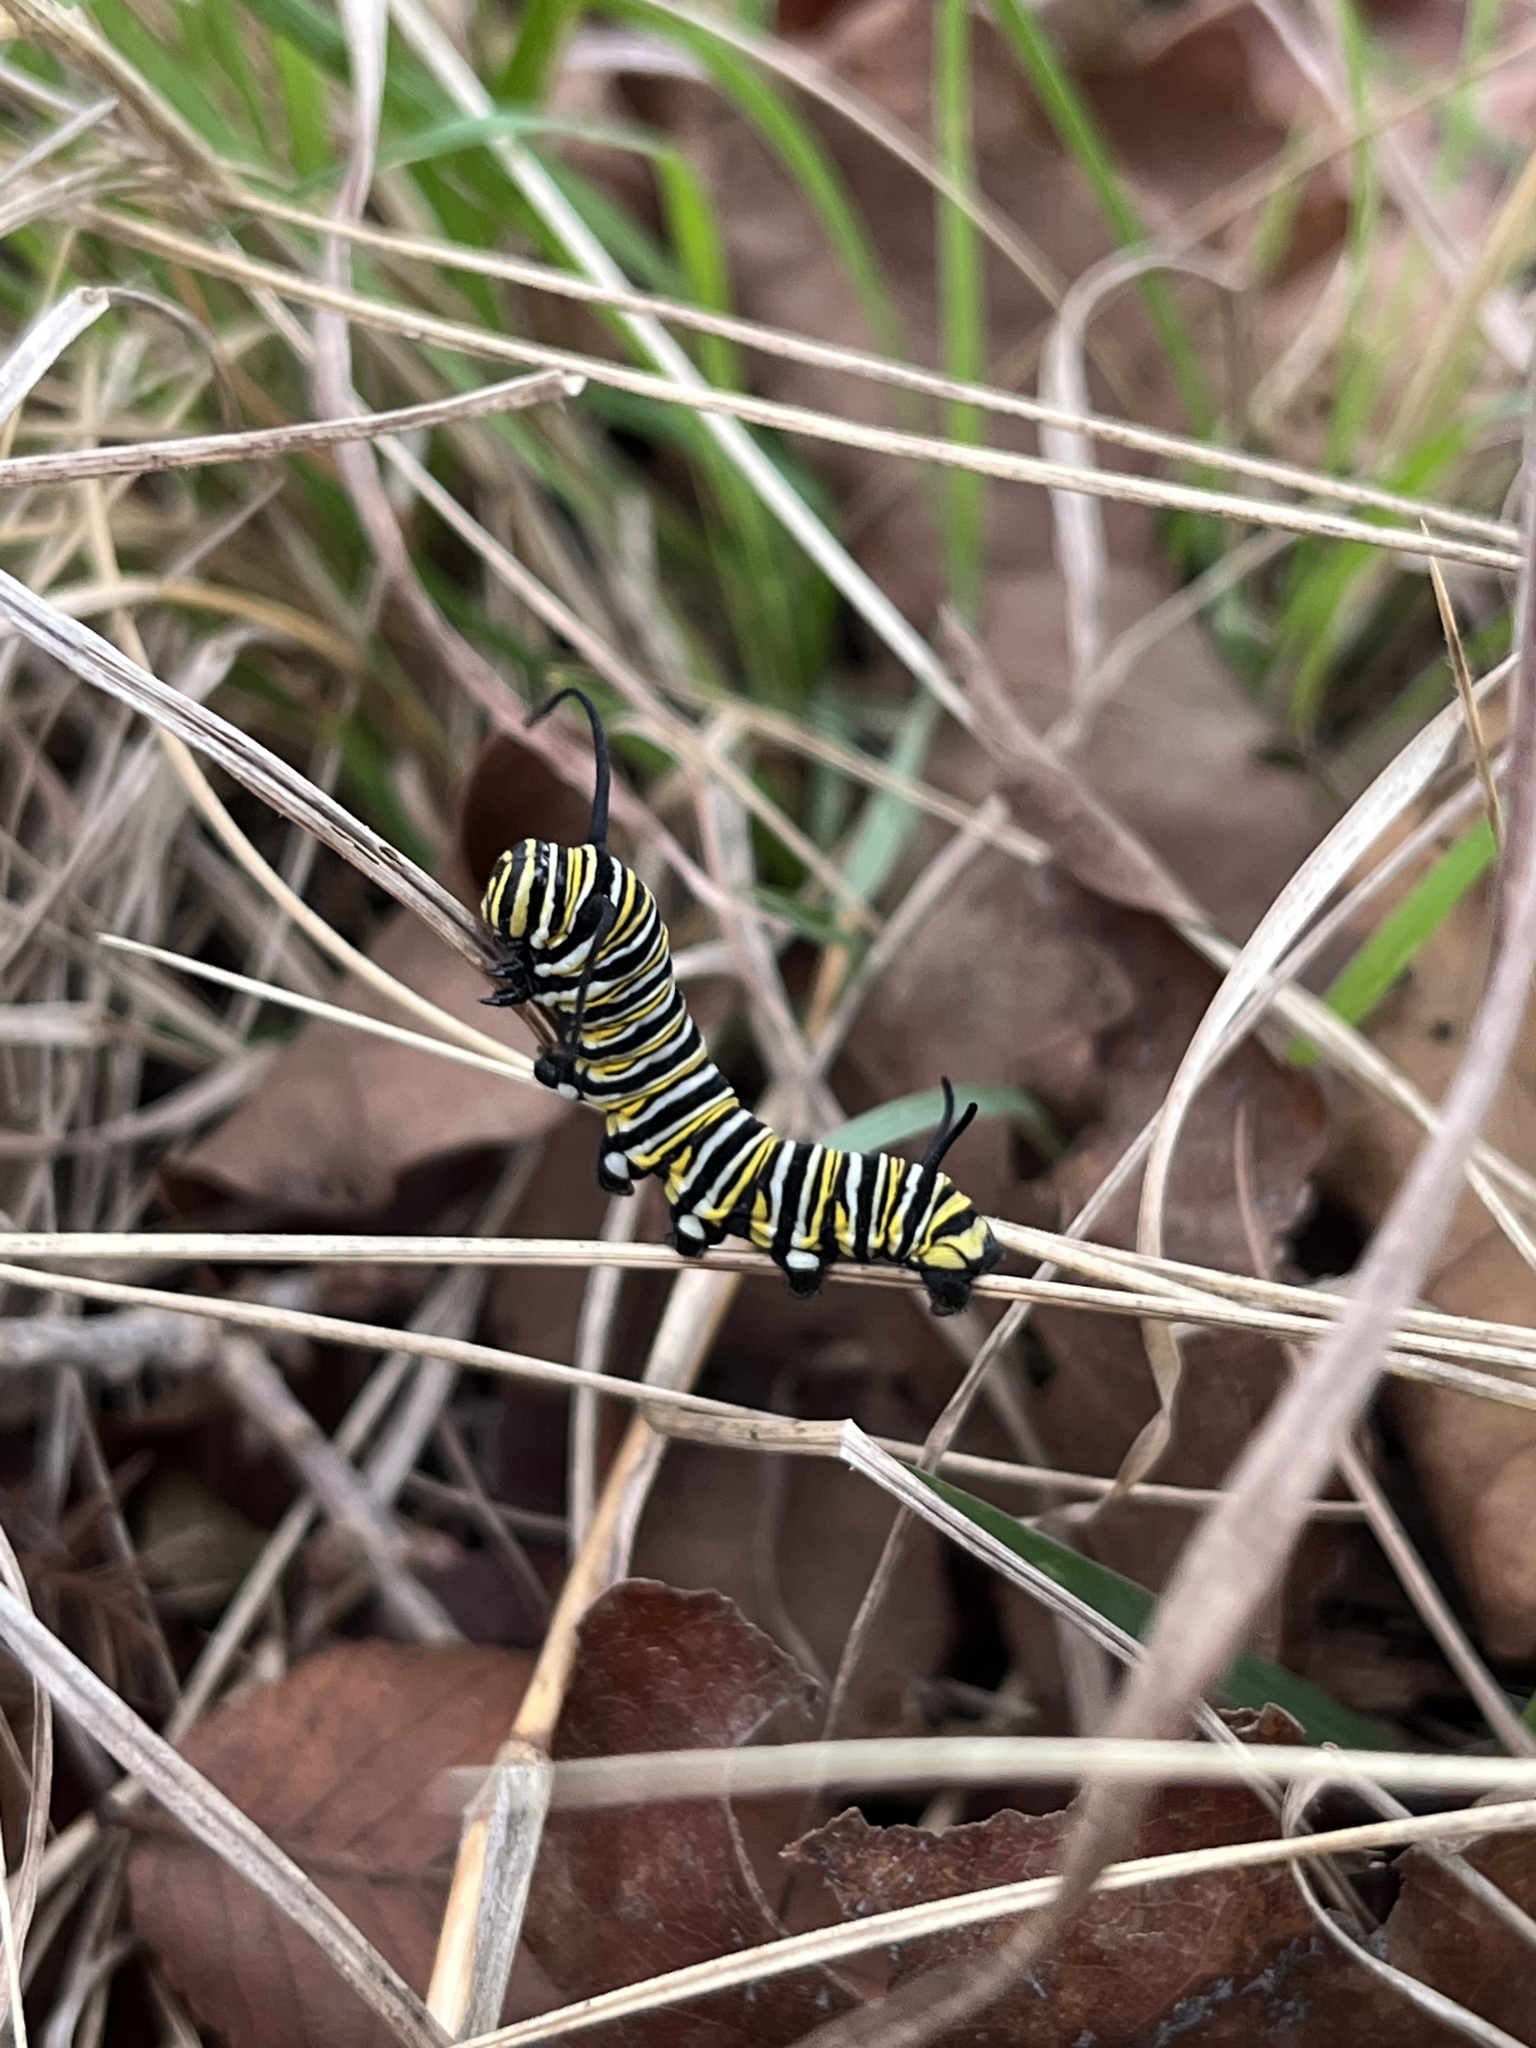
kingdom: Animalia
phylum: Arthropoda
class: Insecta
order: Lepidoptera
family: Nymphalidae
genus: Danaus
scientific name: Danaus plexippus
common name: Monarch
